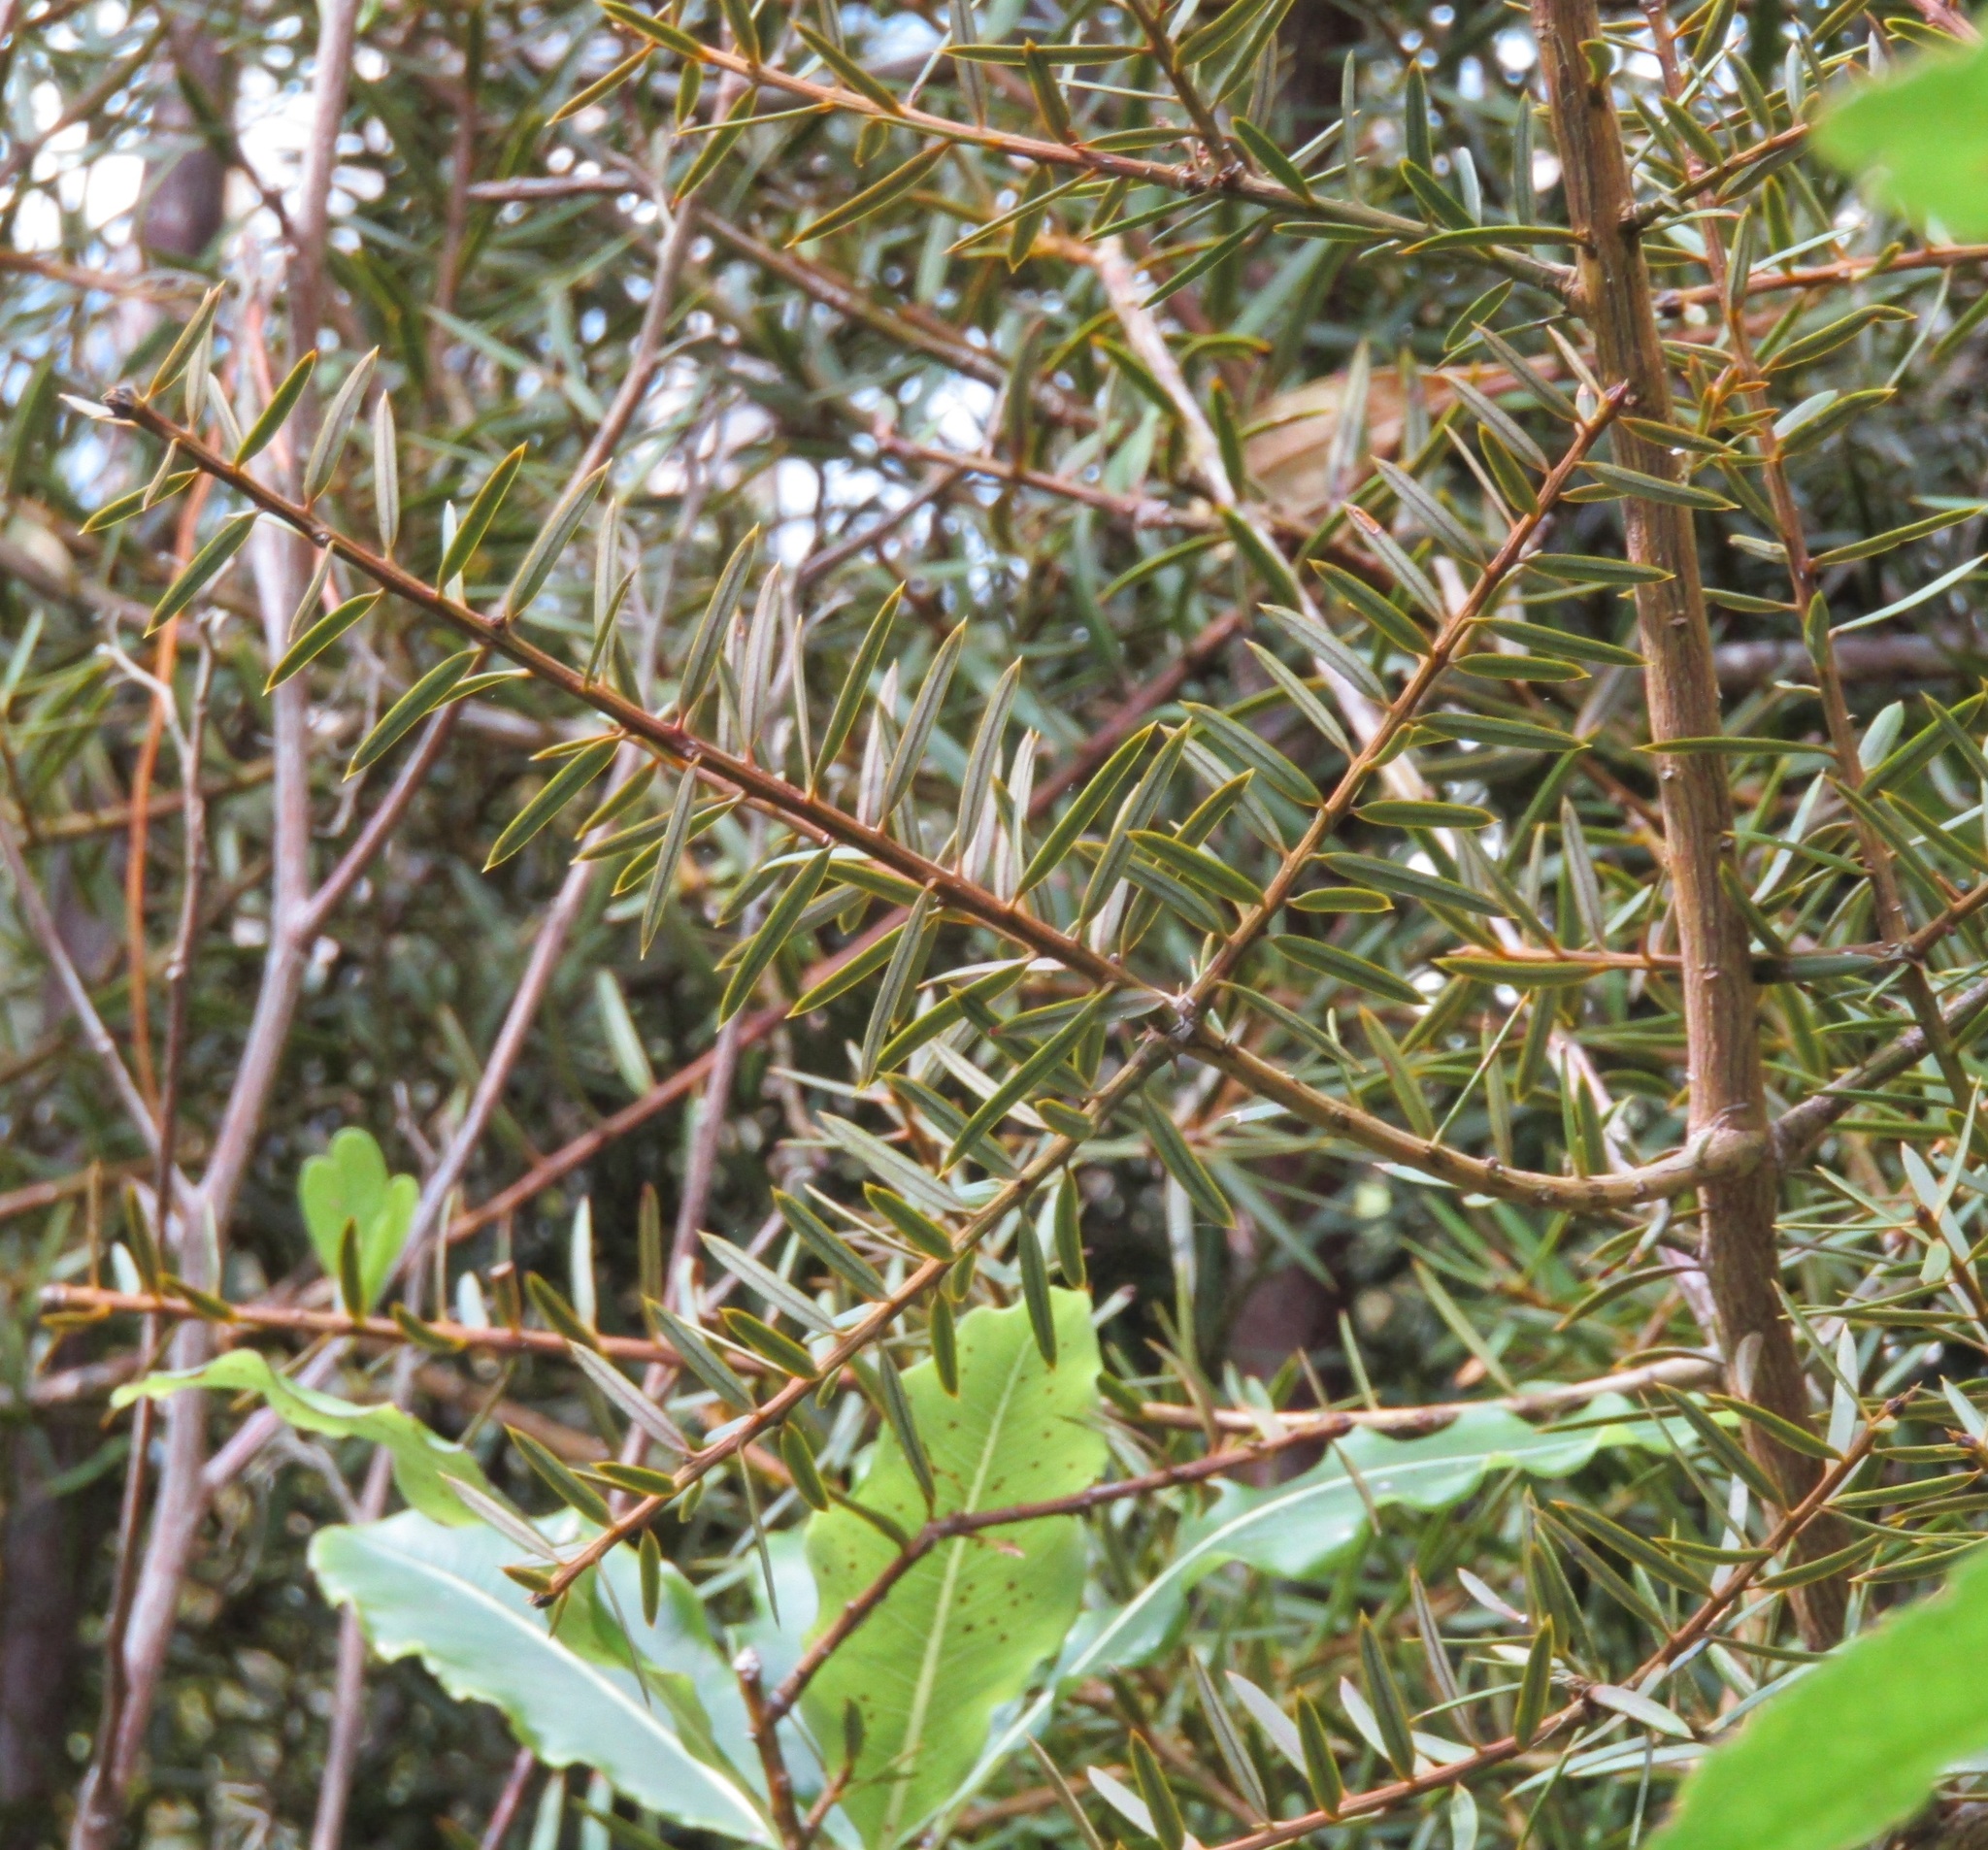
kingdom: Plantae
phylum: Tracheophyta
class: Pinopsida
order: Pinales
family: Podocarpaceae
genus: Podocarpus
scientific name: Podocarpus totara
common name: Totara
